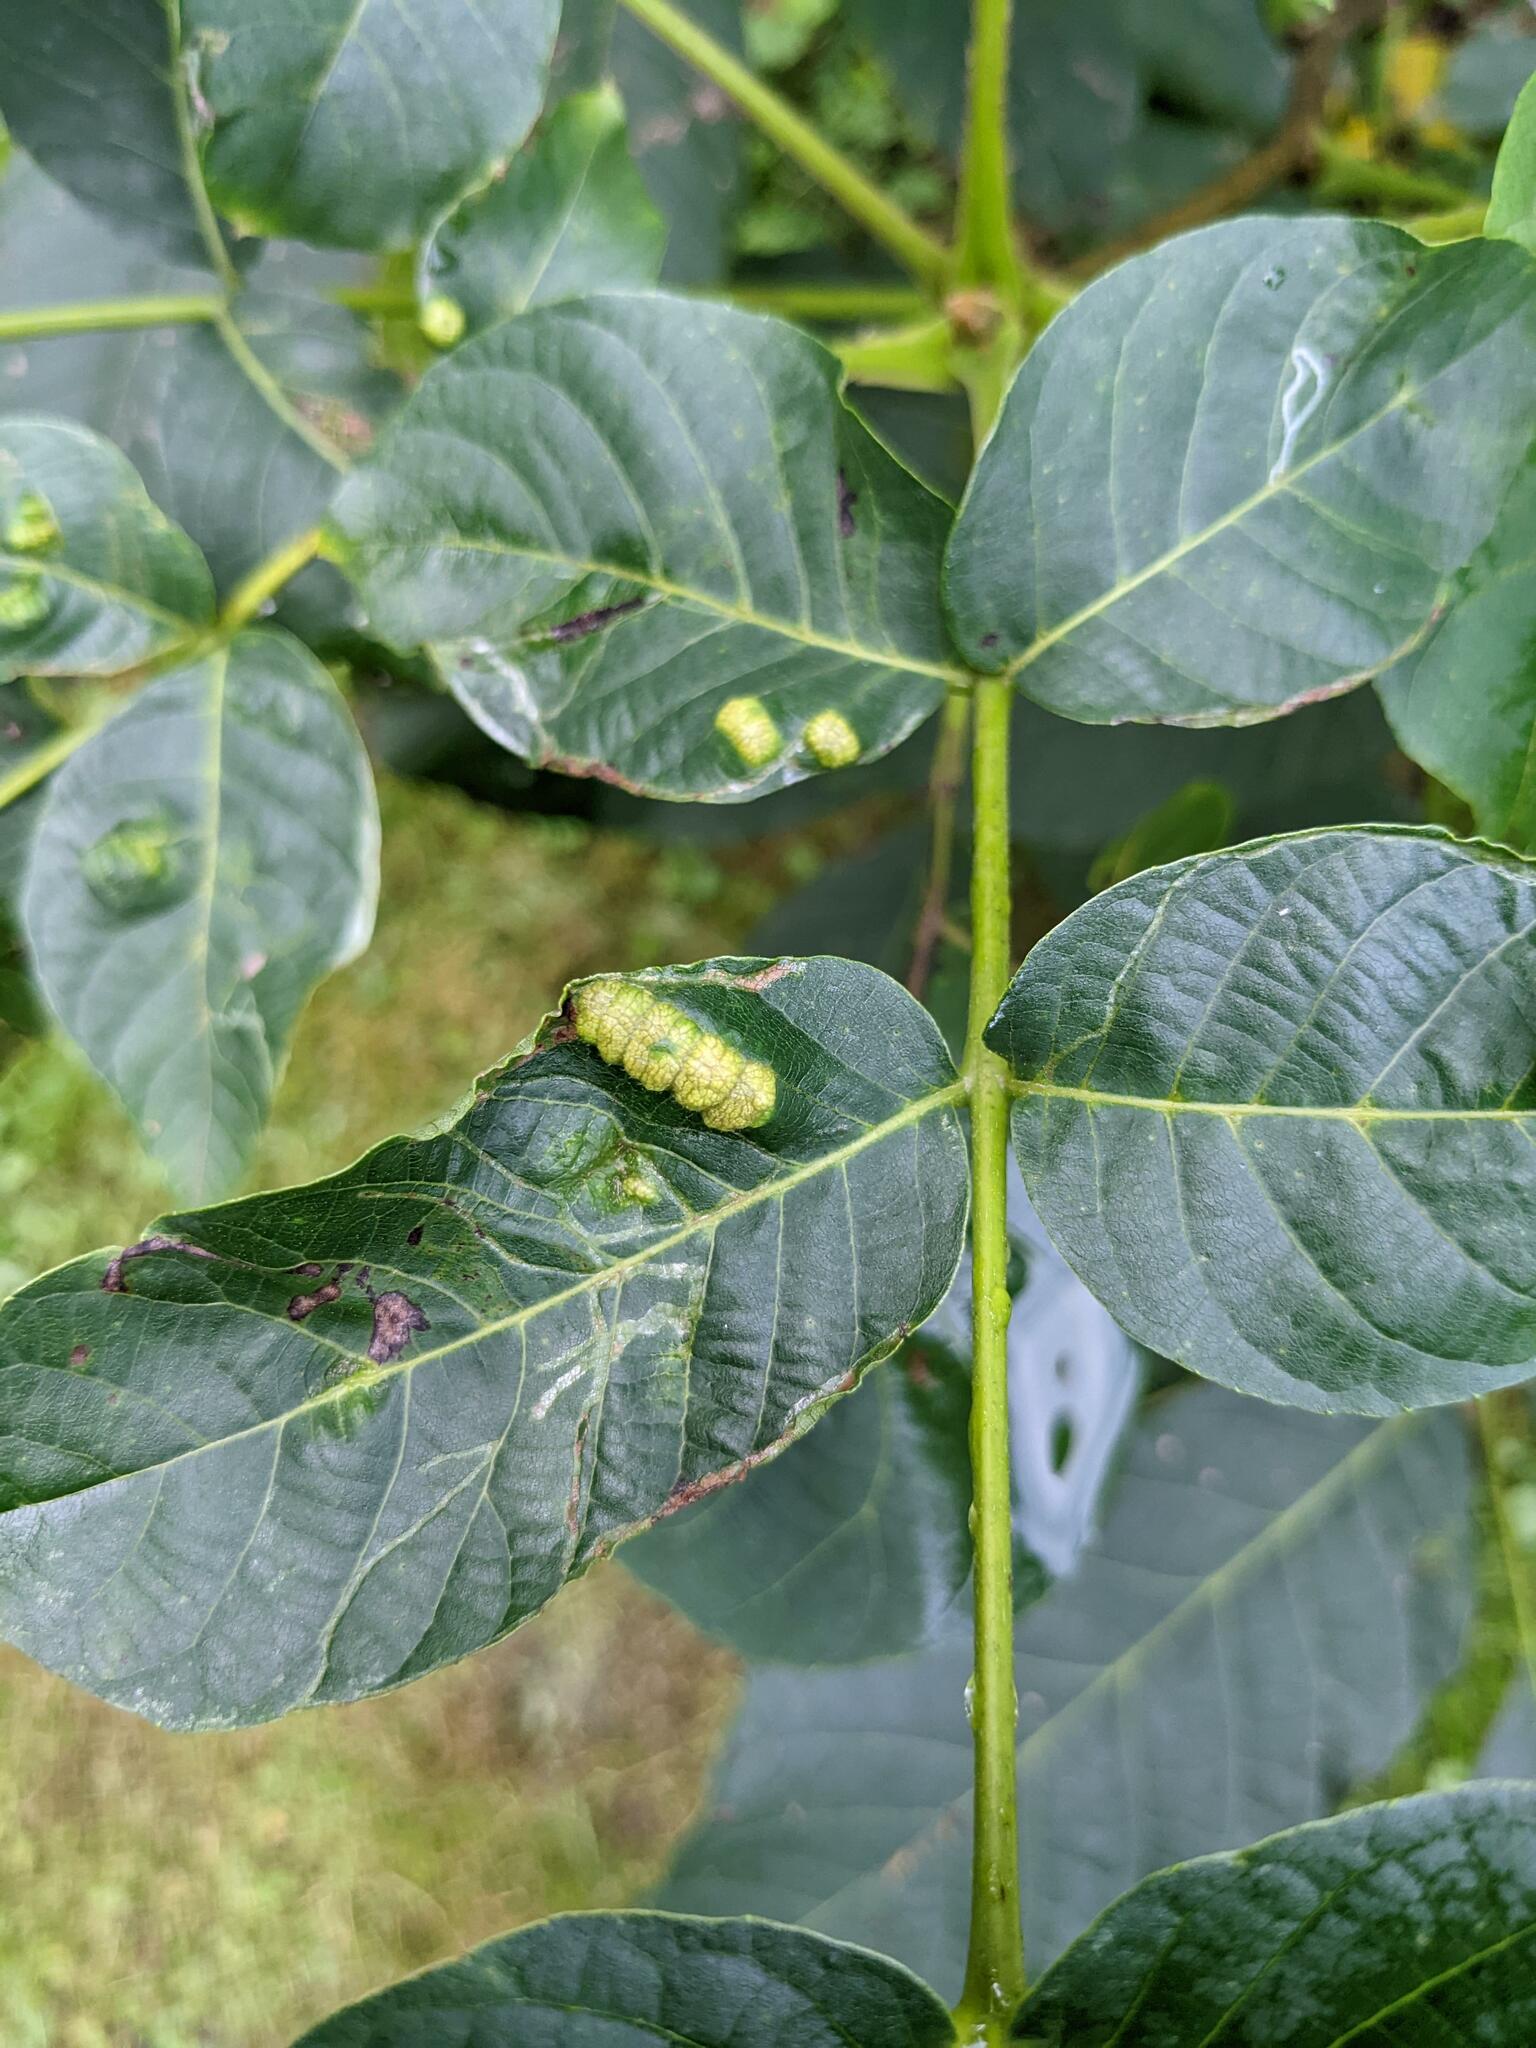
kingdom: Plantae
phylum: Tracheophyta
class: Magnoliopsida
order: Fagales
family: Juglandaceae
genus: Juglans
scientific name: Juglans regia
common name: Walnut
